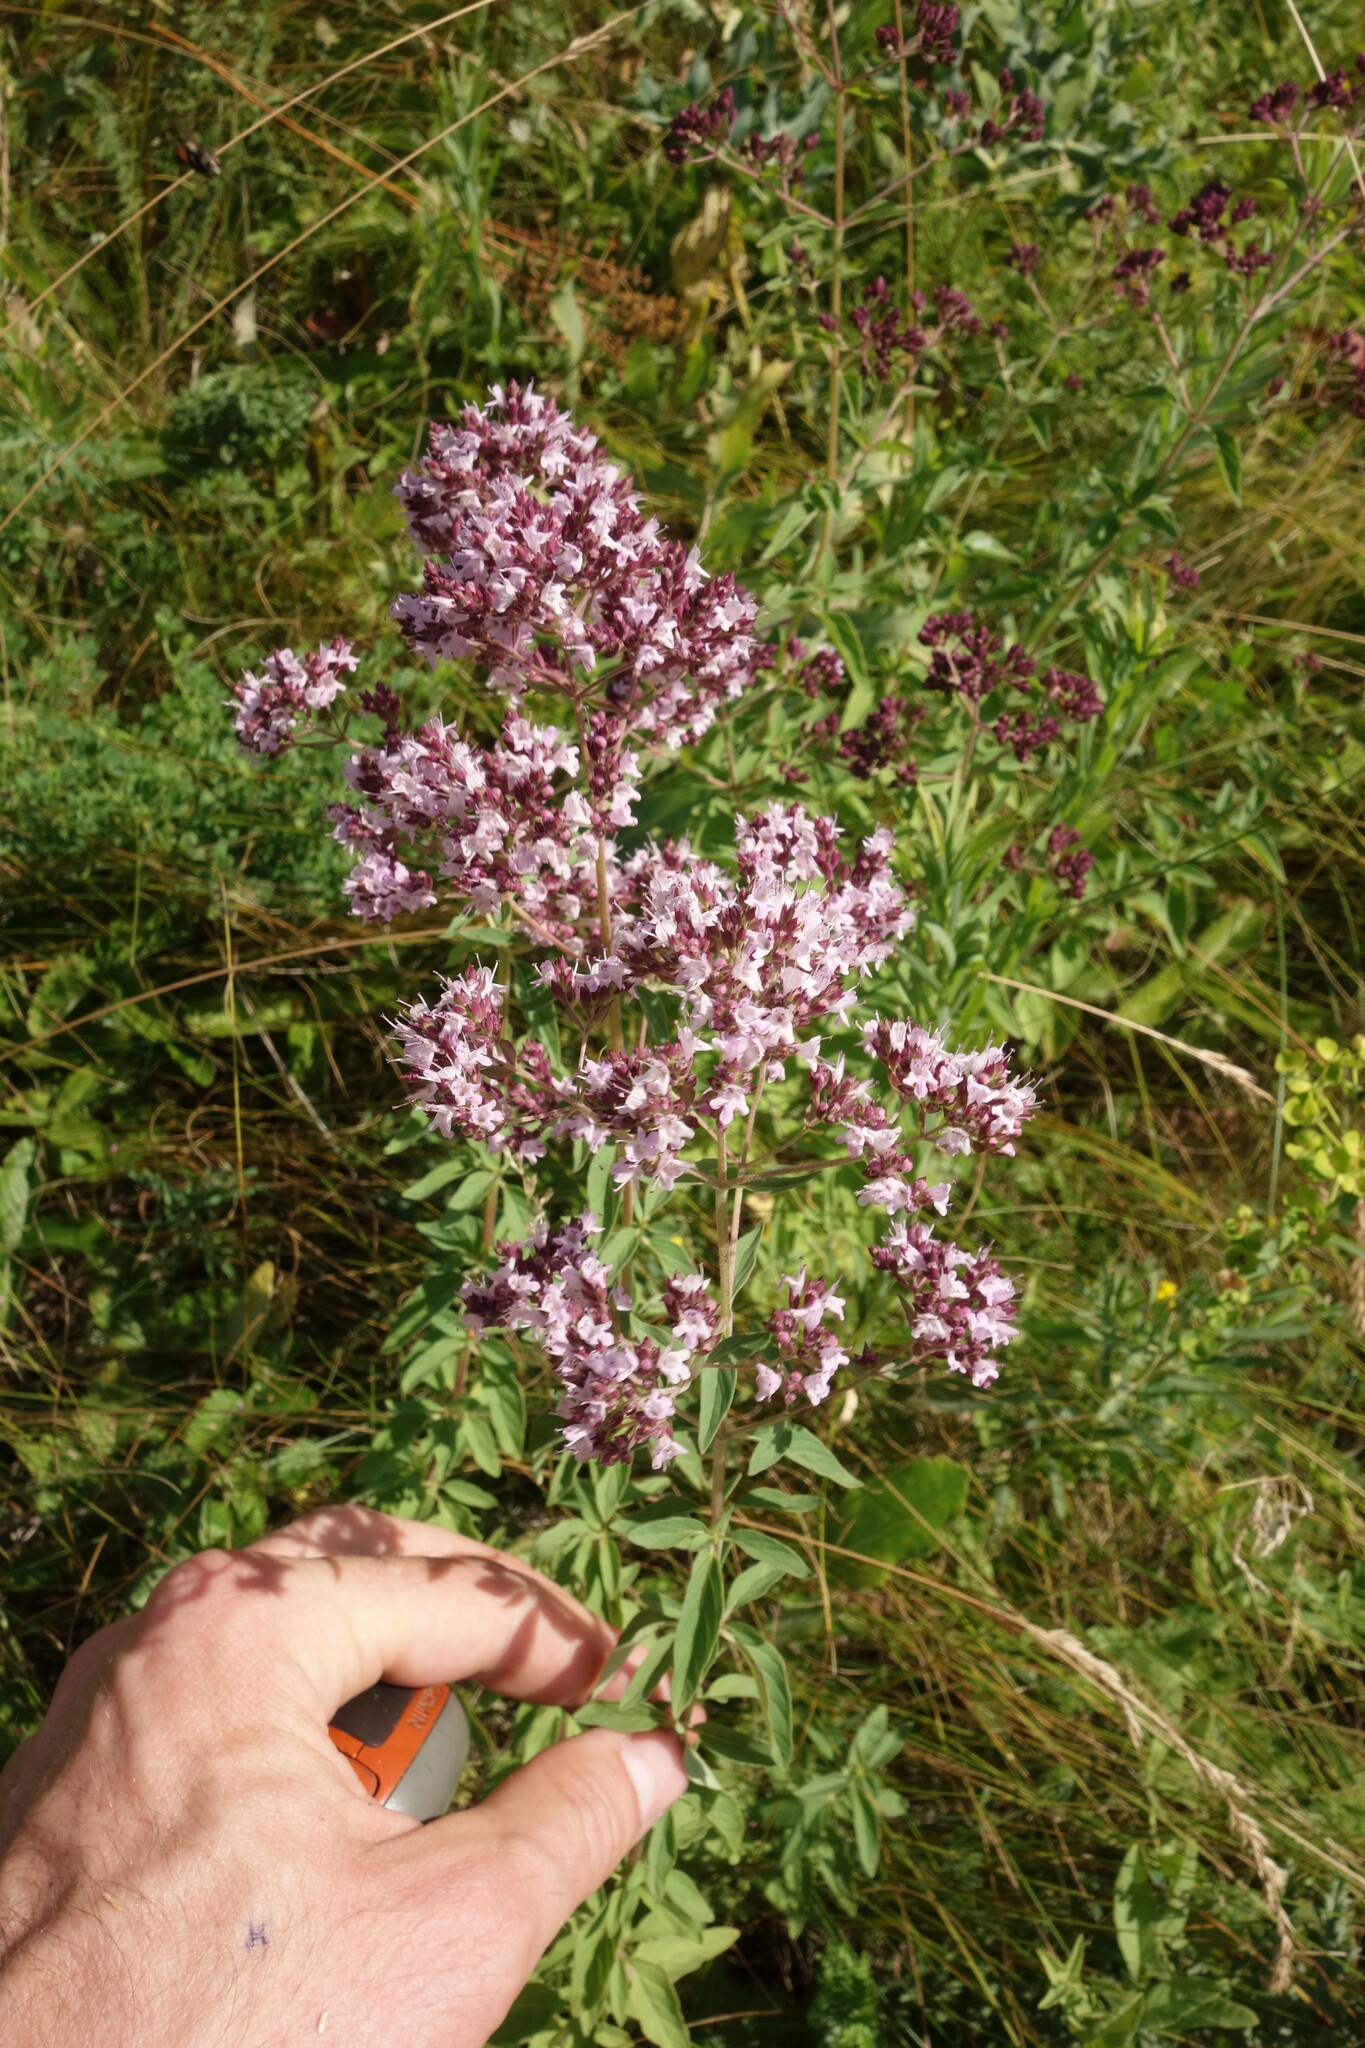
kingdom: Plantae
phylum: Tracheophyta
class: Magnoliopsida
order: Lamiales
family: Lamiaceae
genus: Origanum
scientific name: Origanum vulgare
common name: Wild marjoram
